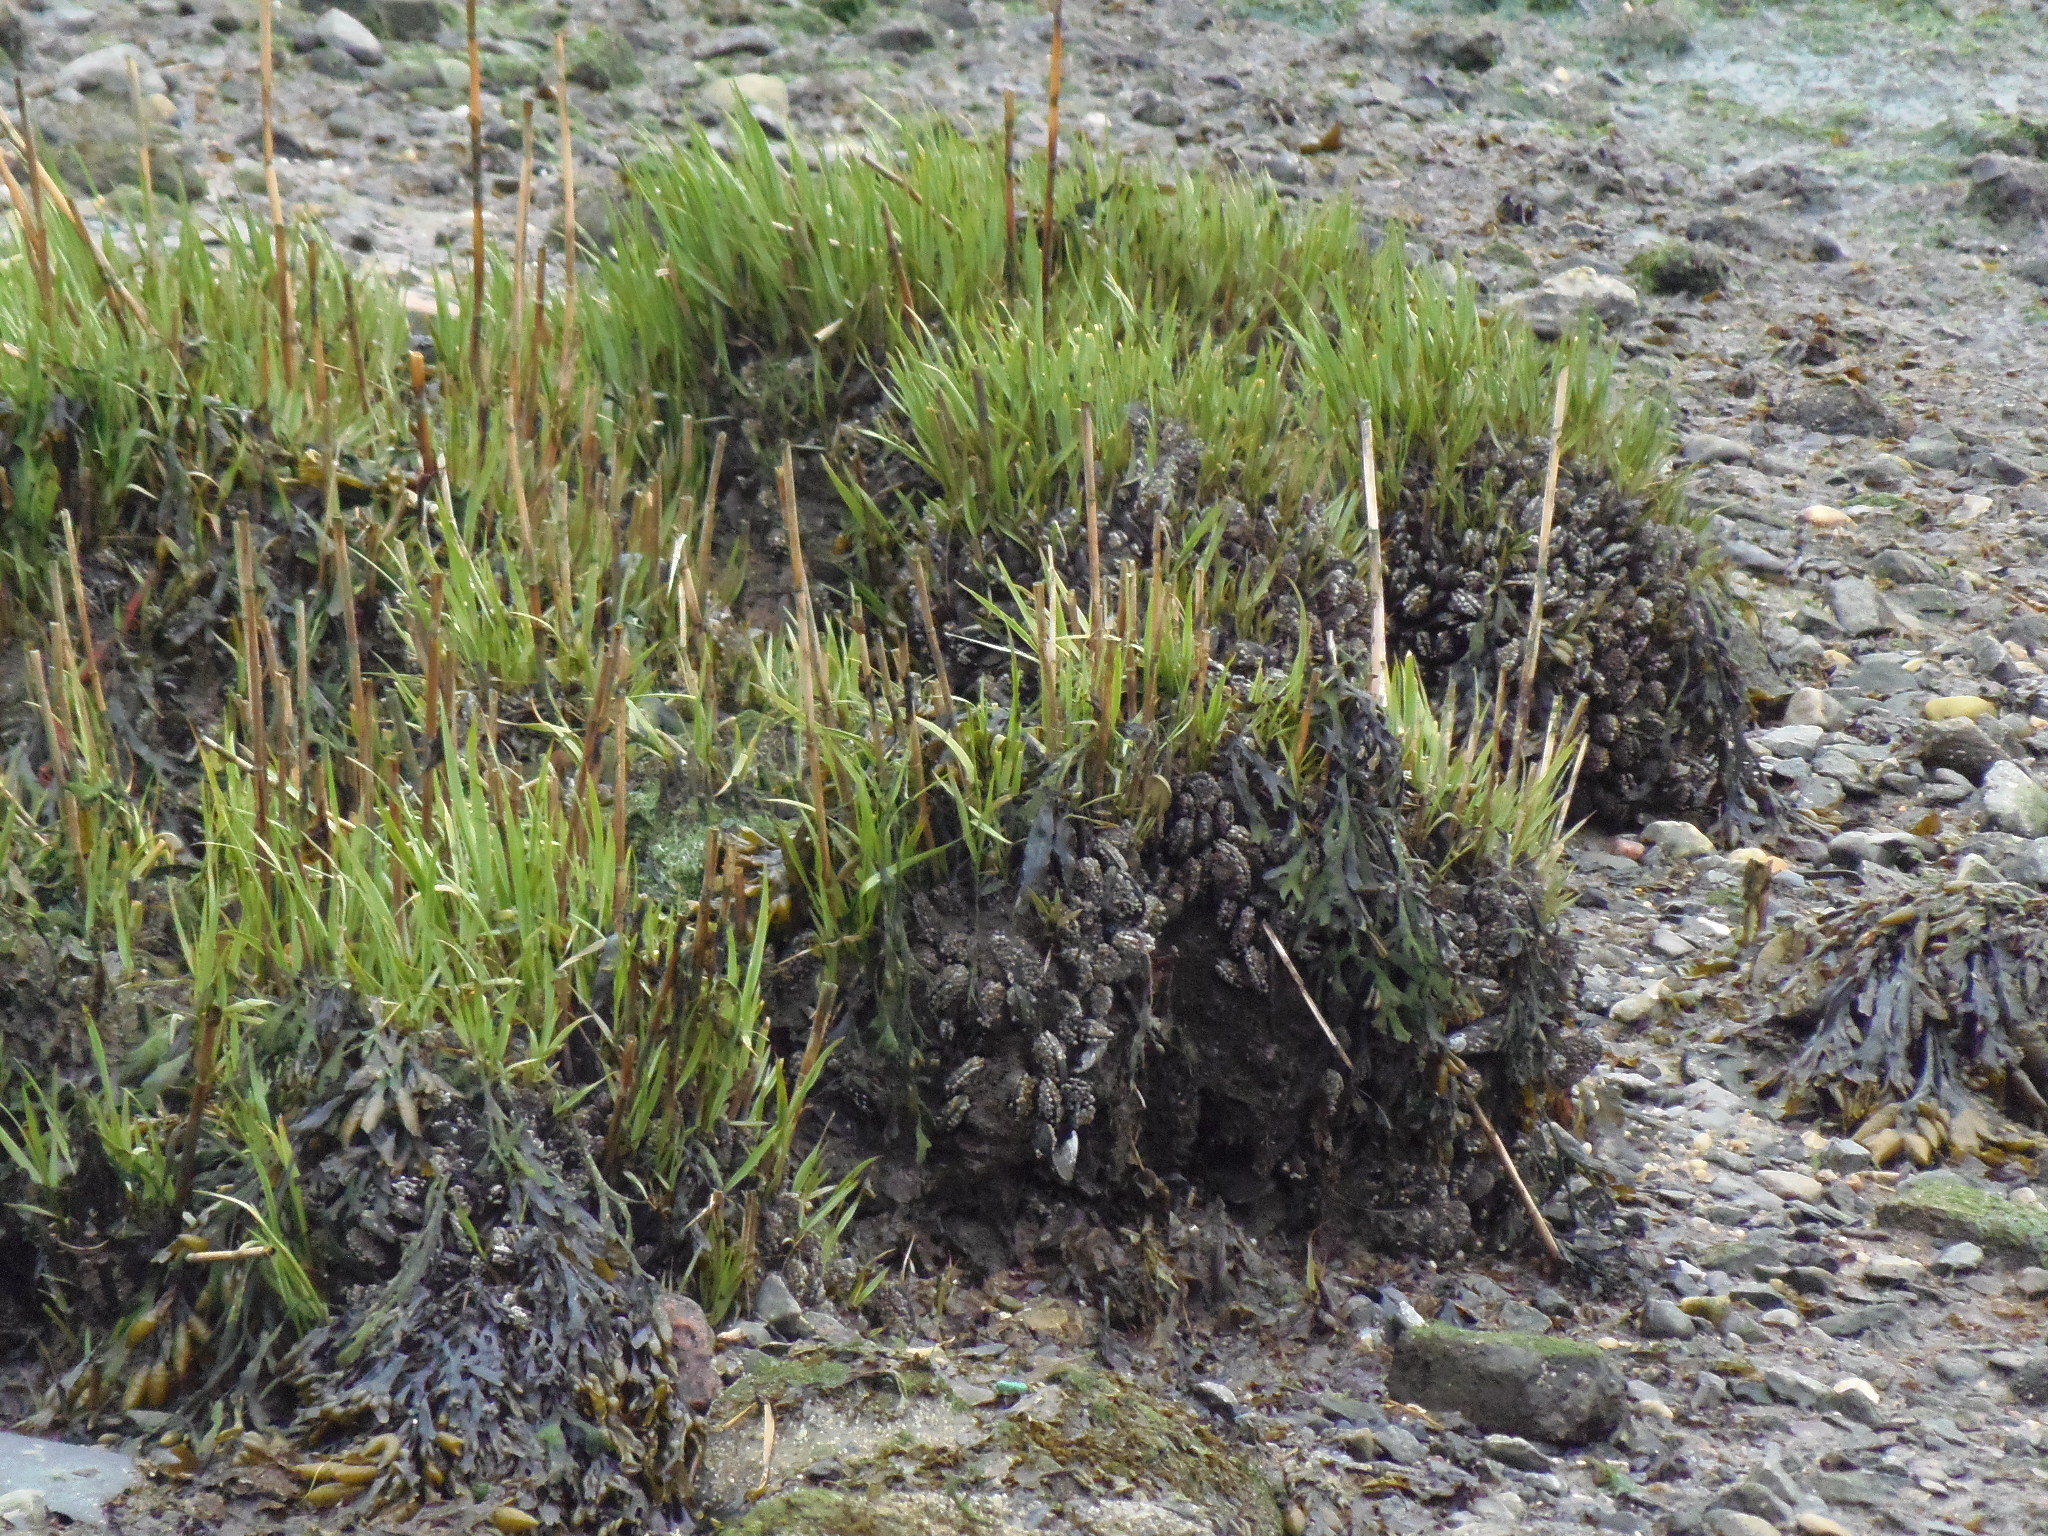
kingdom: Plantae
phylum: Tracheophyta
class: Liliopsida
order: Poales
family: Poaceae
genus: Sporobolus
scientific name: Sporobolus alterniflorus
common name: Atlantic cordgrass
